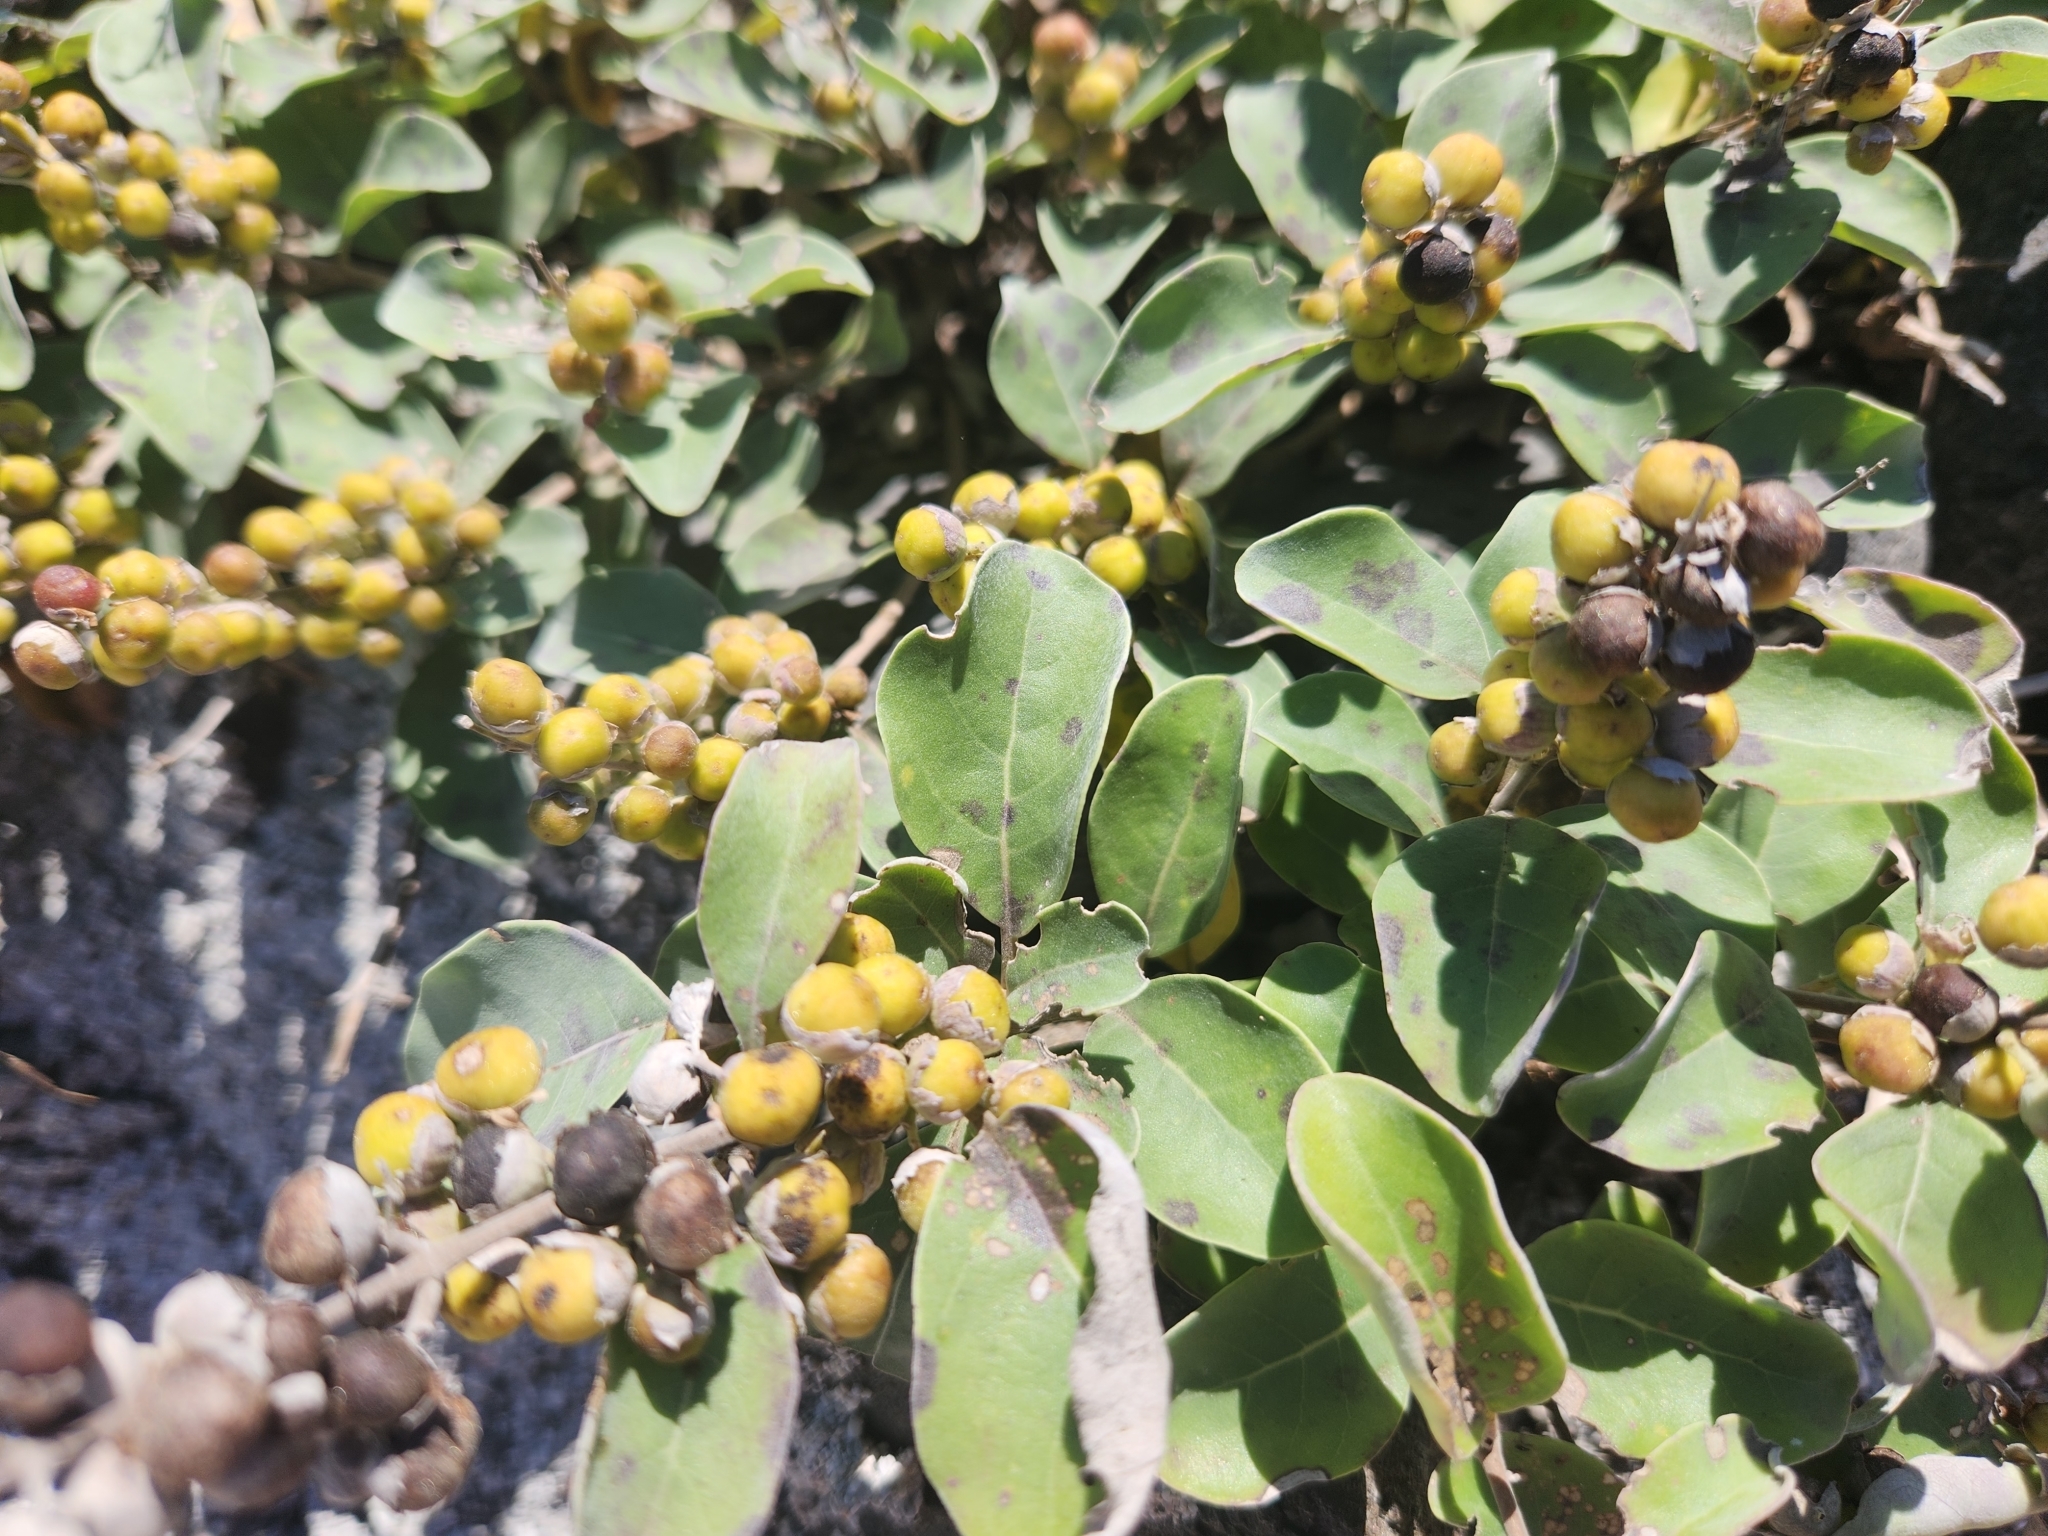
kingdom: Plantae
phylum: Tracheophyta
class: Magnoliopsida
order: Lamiales
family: Lamiaceae
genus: Vitex
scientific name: Vitex rotundifolia
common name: Beach vitex
